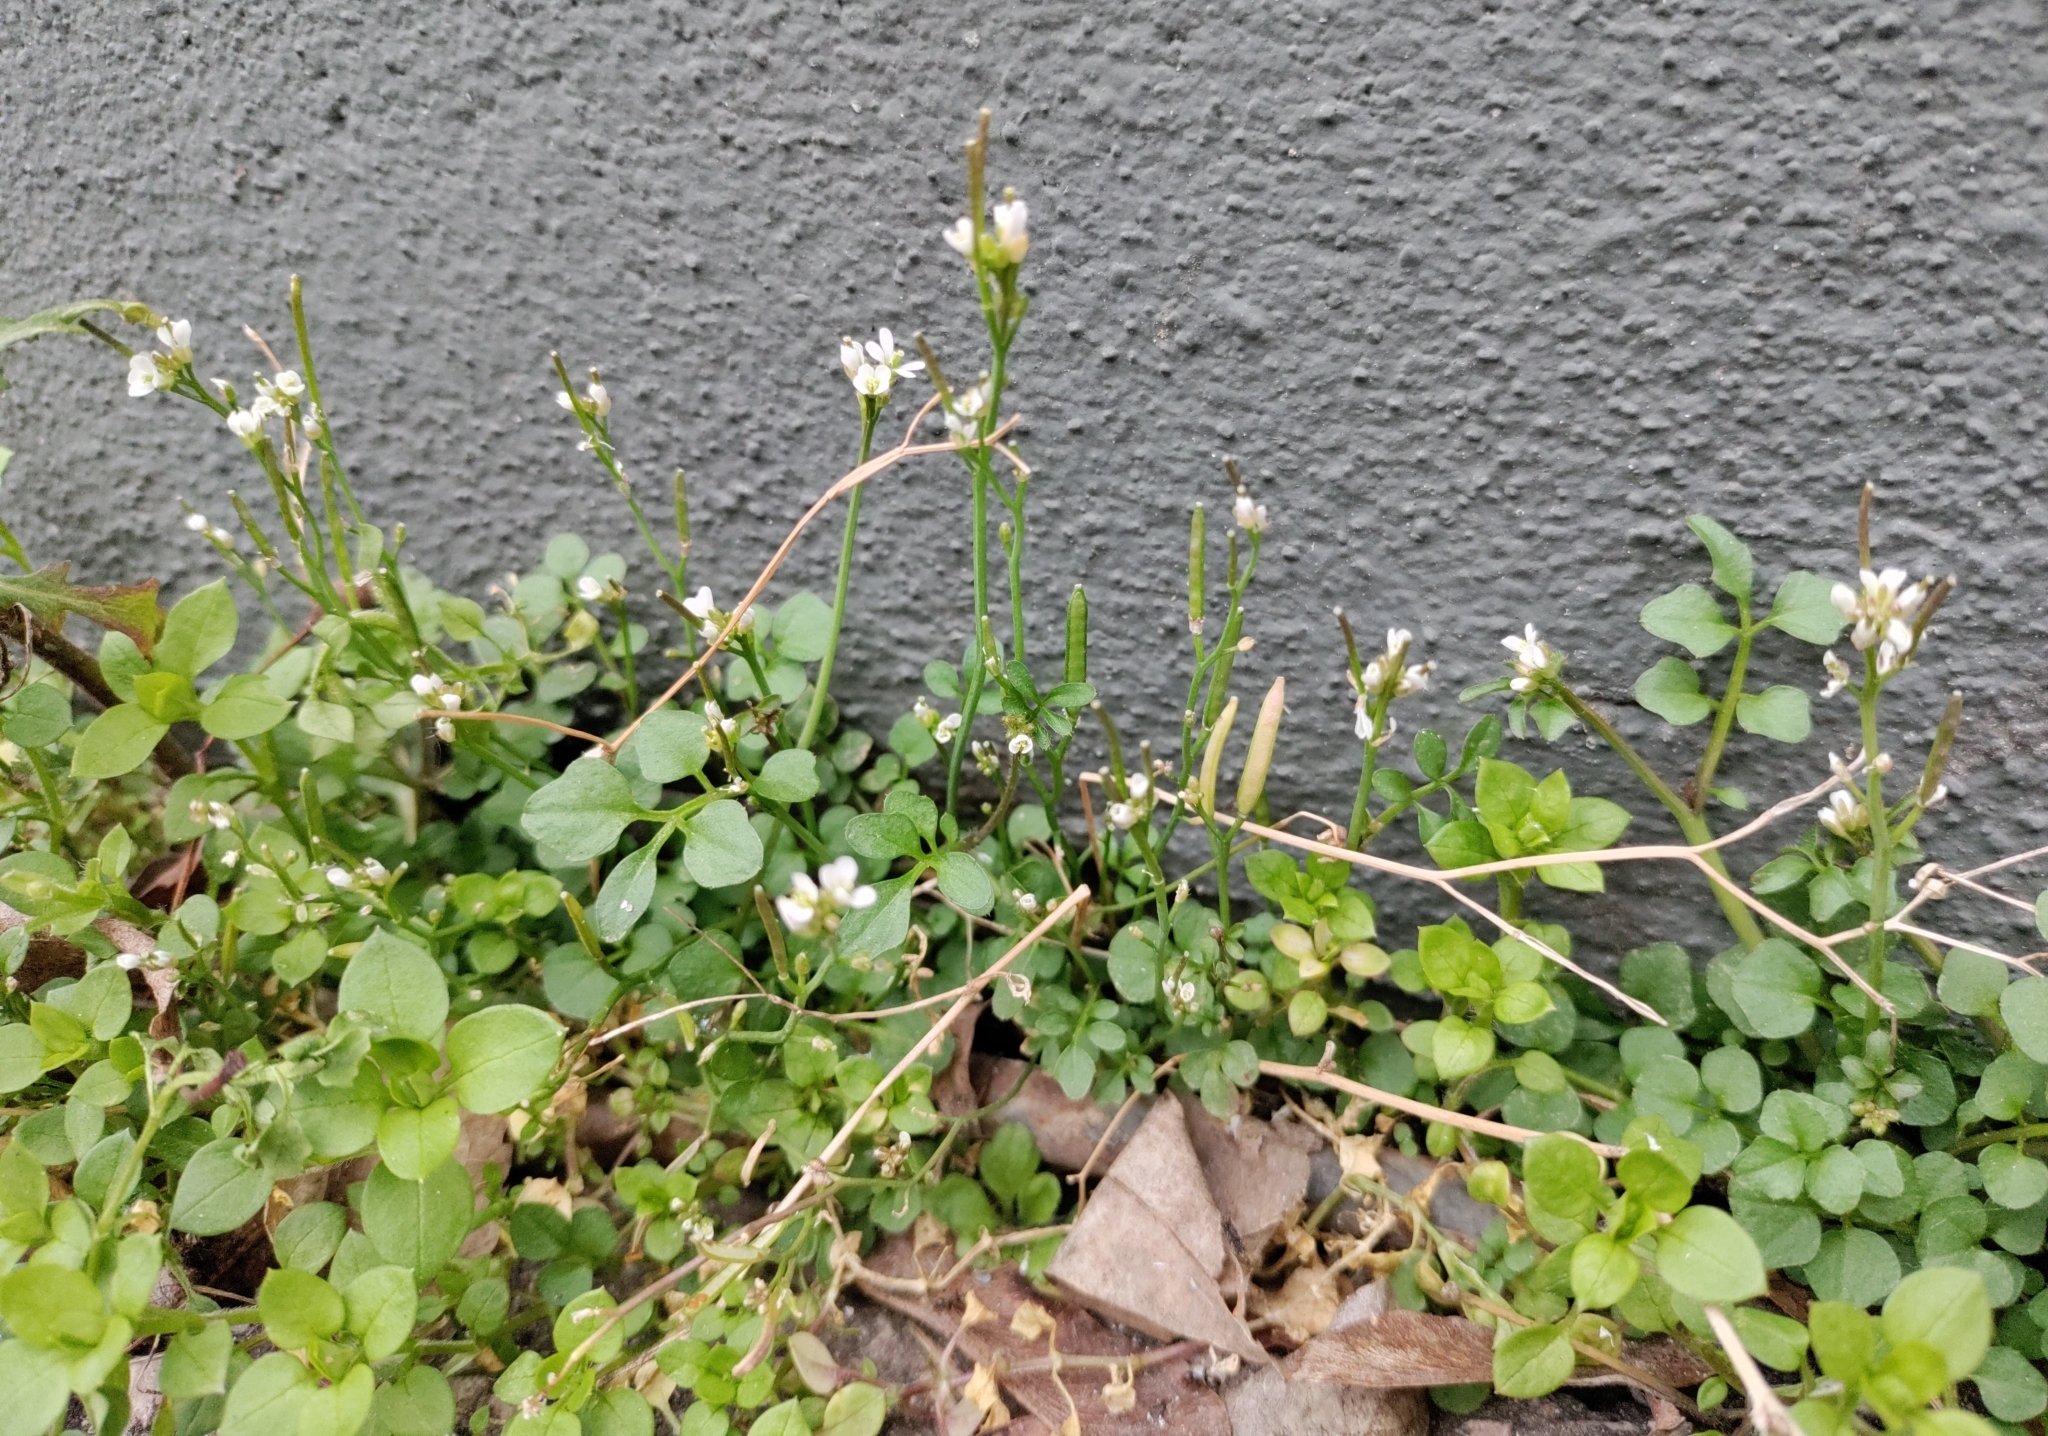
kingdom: Plantae
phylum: Tracheophyta
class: Magnoliopsida
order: Brassicales
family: Brassicaceae
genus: Cardamine
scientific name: Cardamine hirsuta
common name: Hairy bittercress
